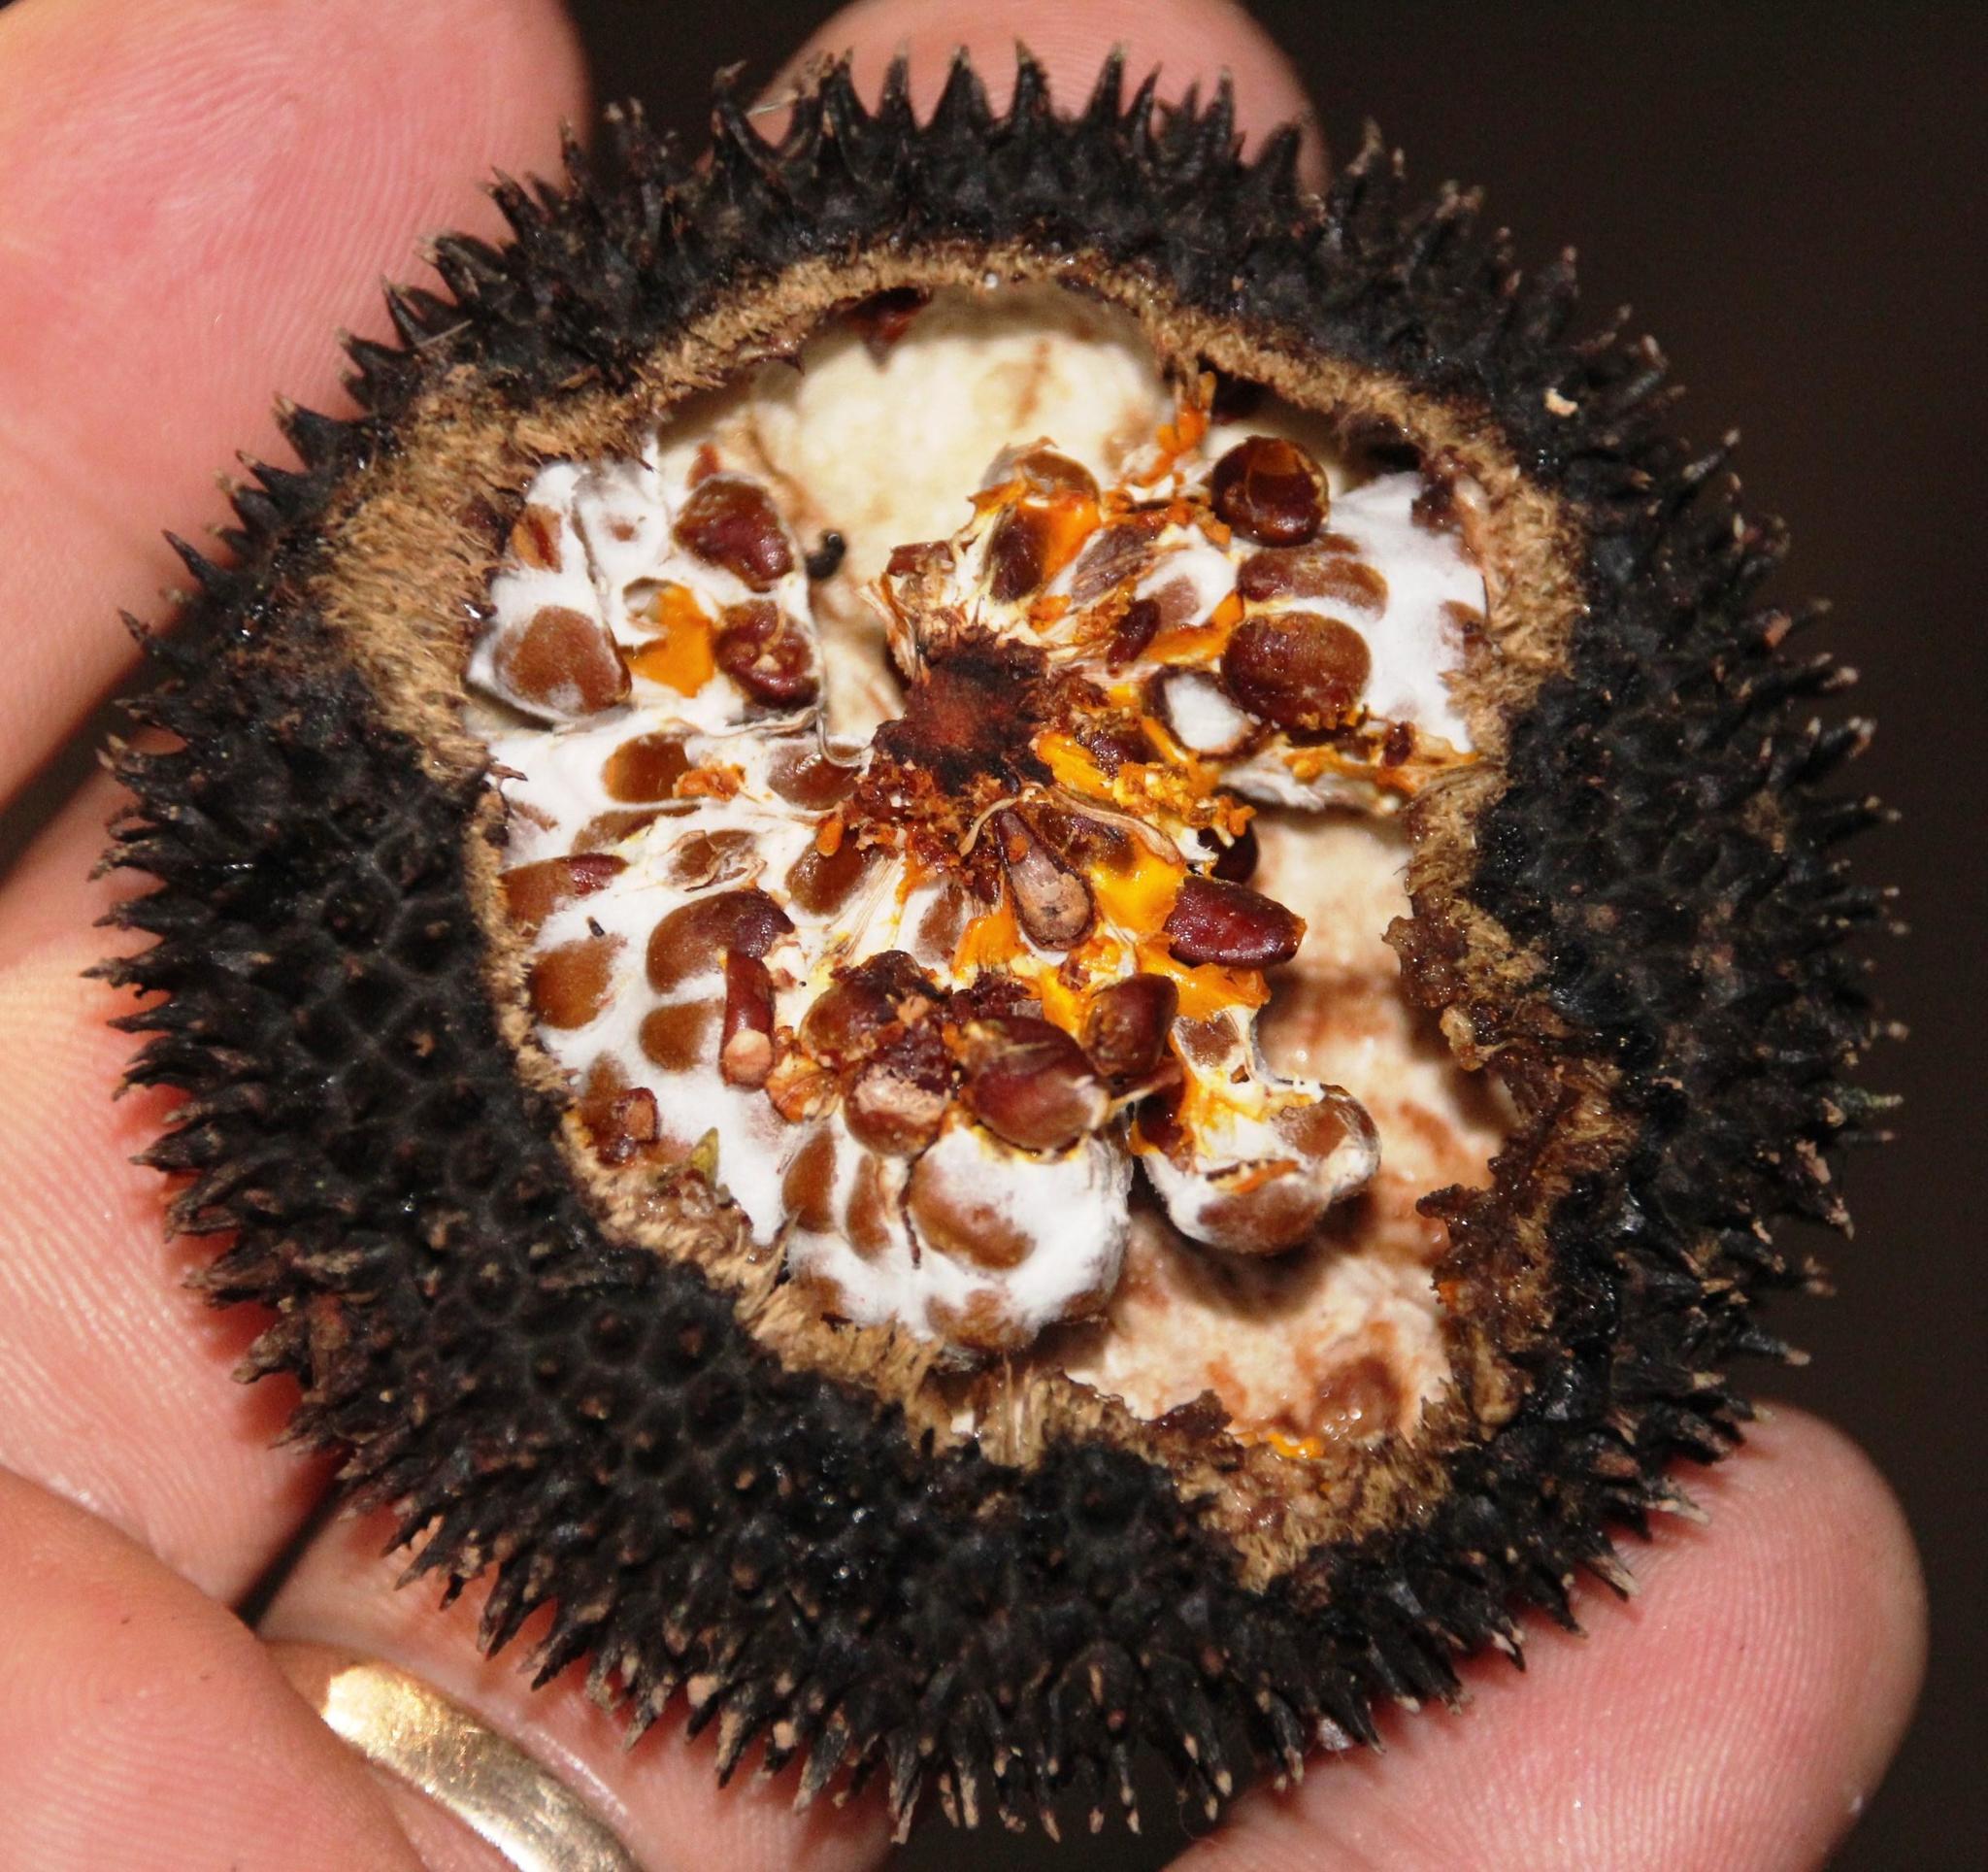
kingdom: Plantae
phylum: Tracheophyta
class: Magnoliopsida
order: Malvales
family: Malvaceae
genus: Apeiba
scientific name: Apeiba membranacea
